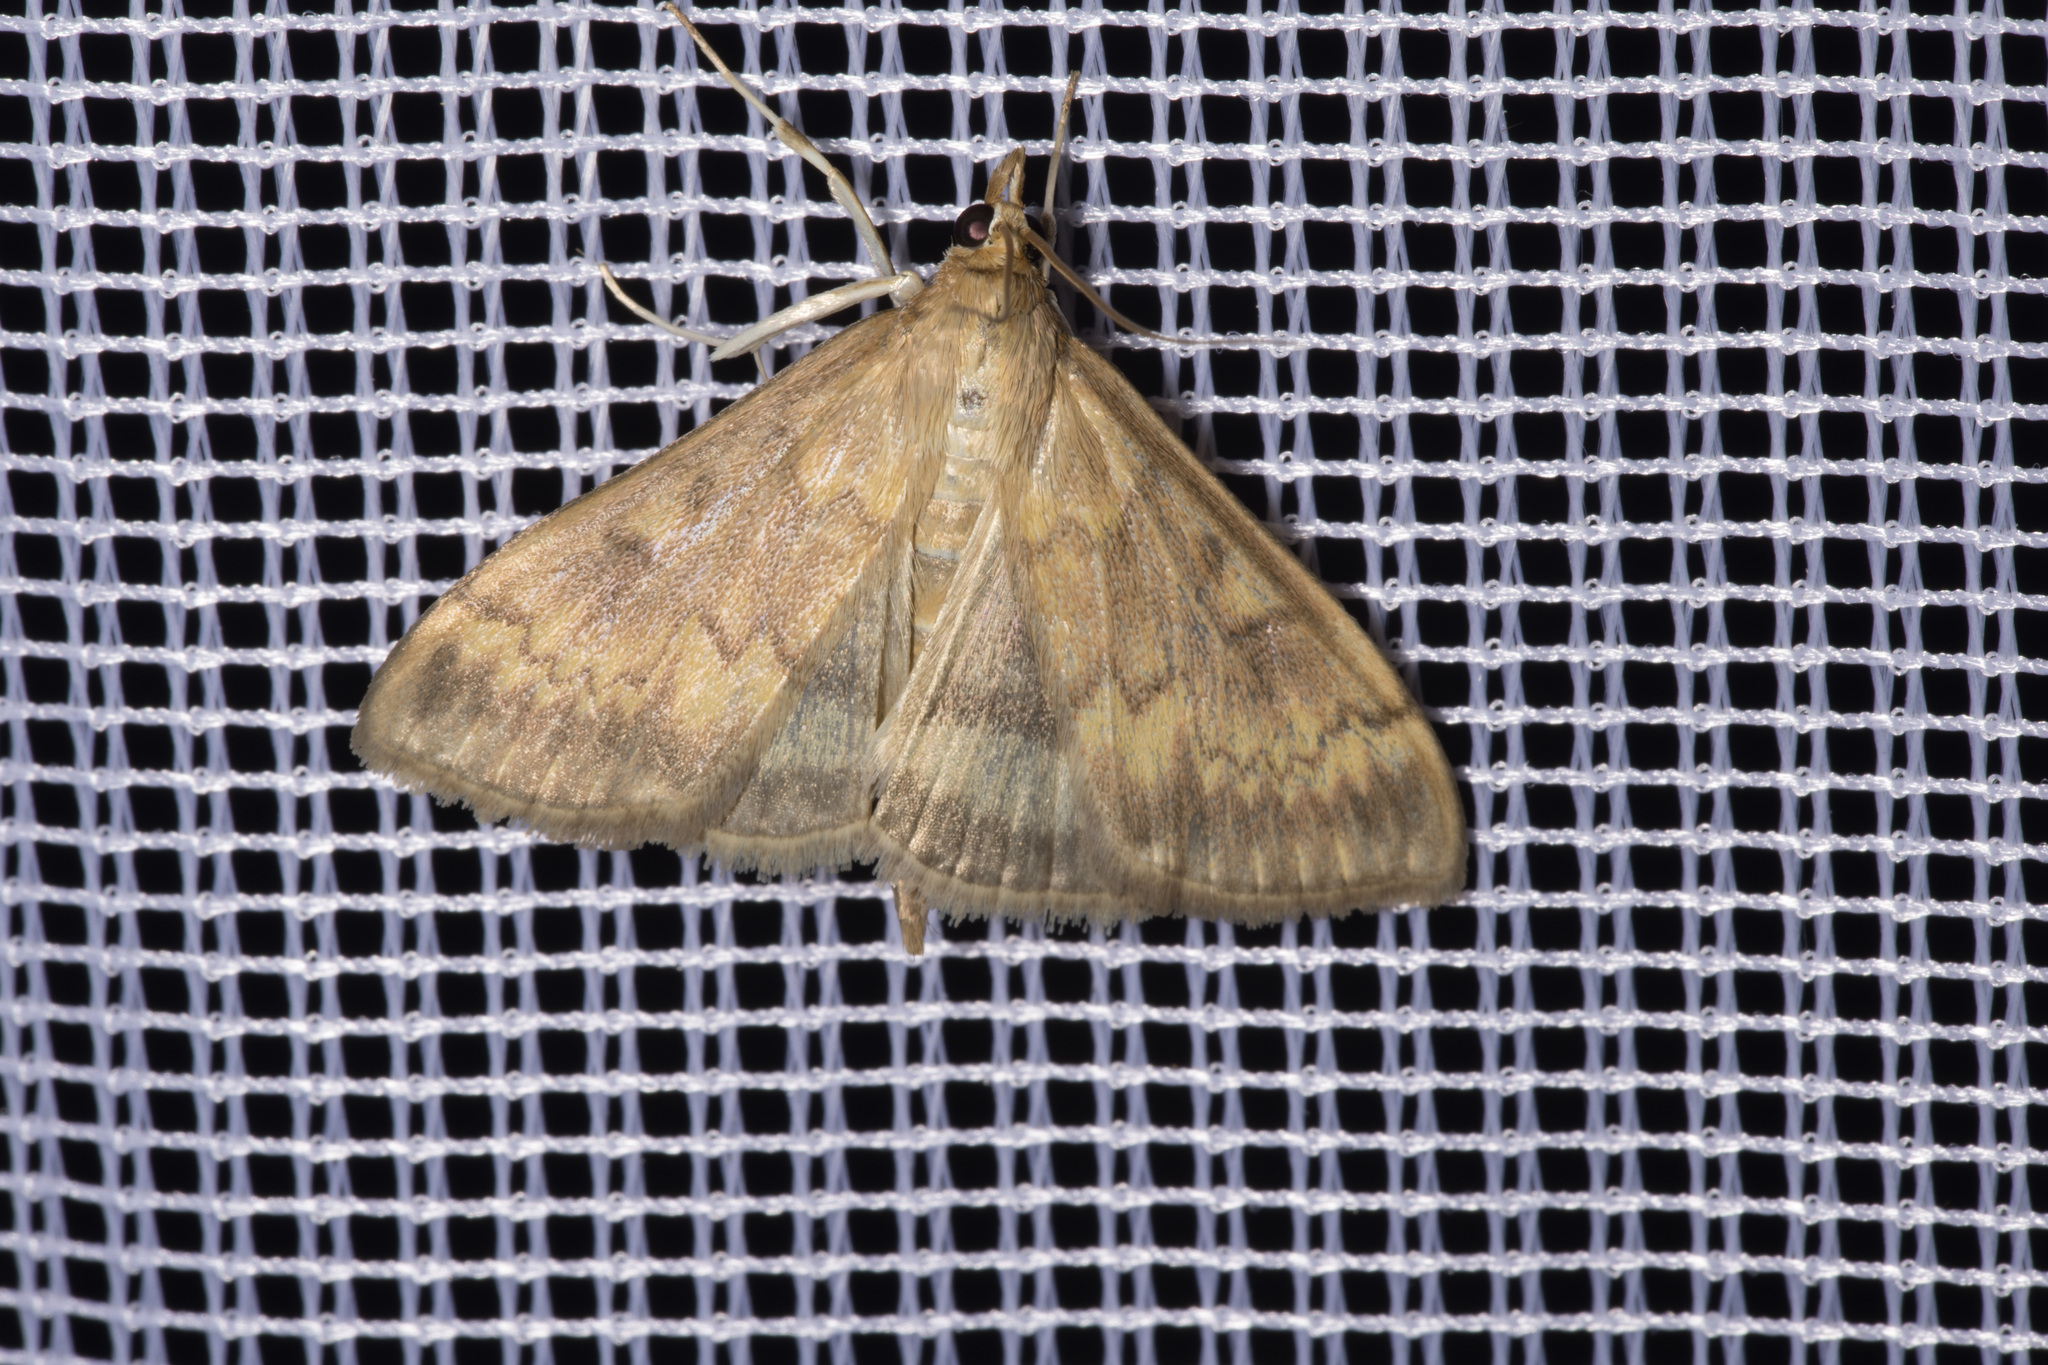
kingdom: Animalia
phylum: Arthropoda
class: Insecta
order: Lepidoptera
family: Crambidae
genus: Ostrinia
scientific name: Ostrinia nubilalis
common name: European corn borer
